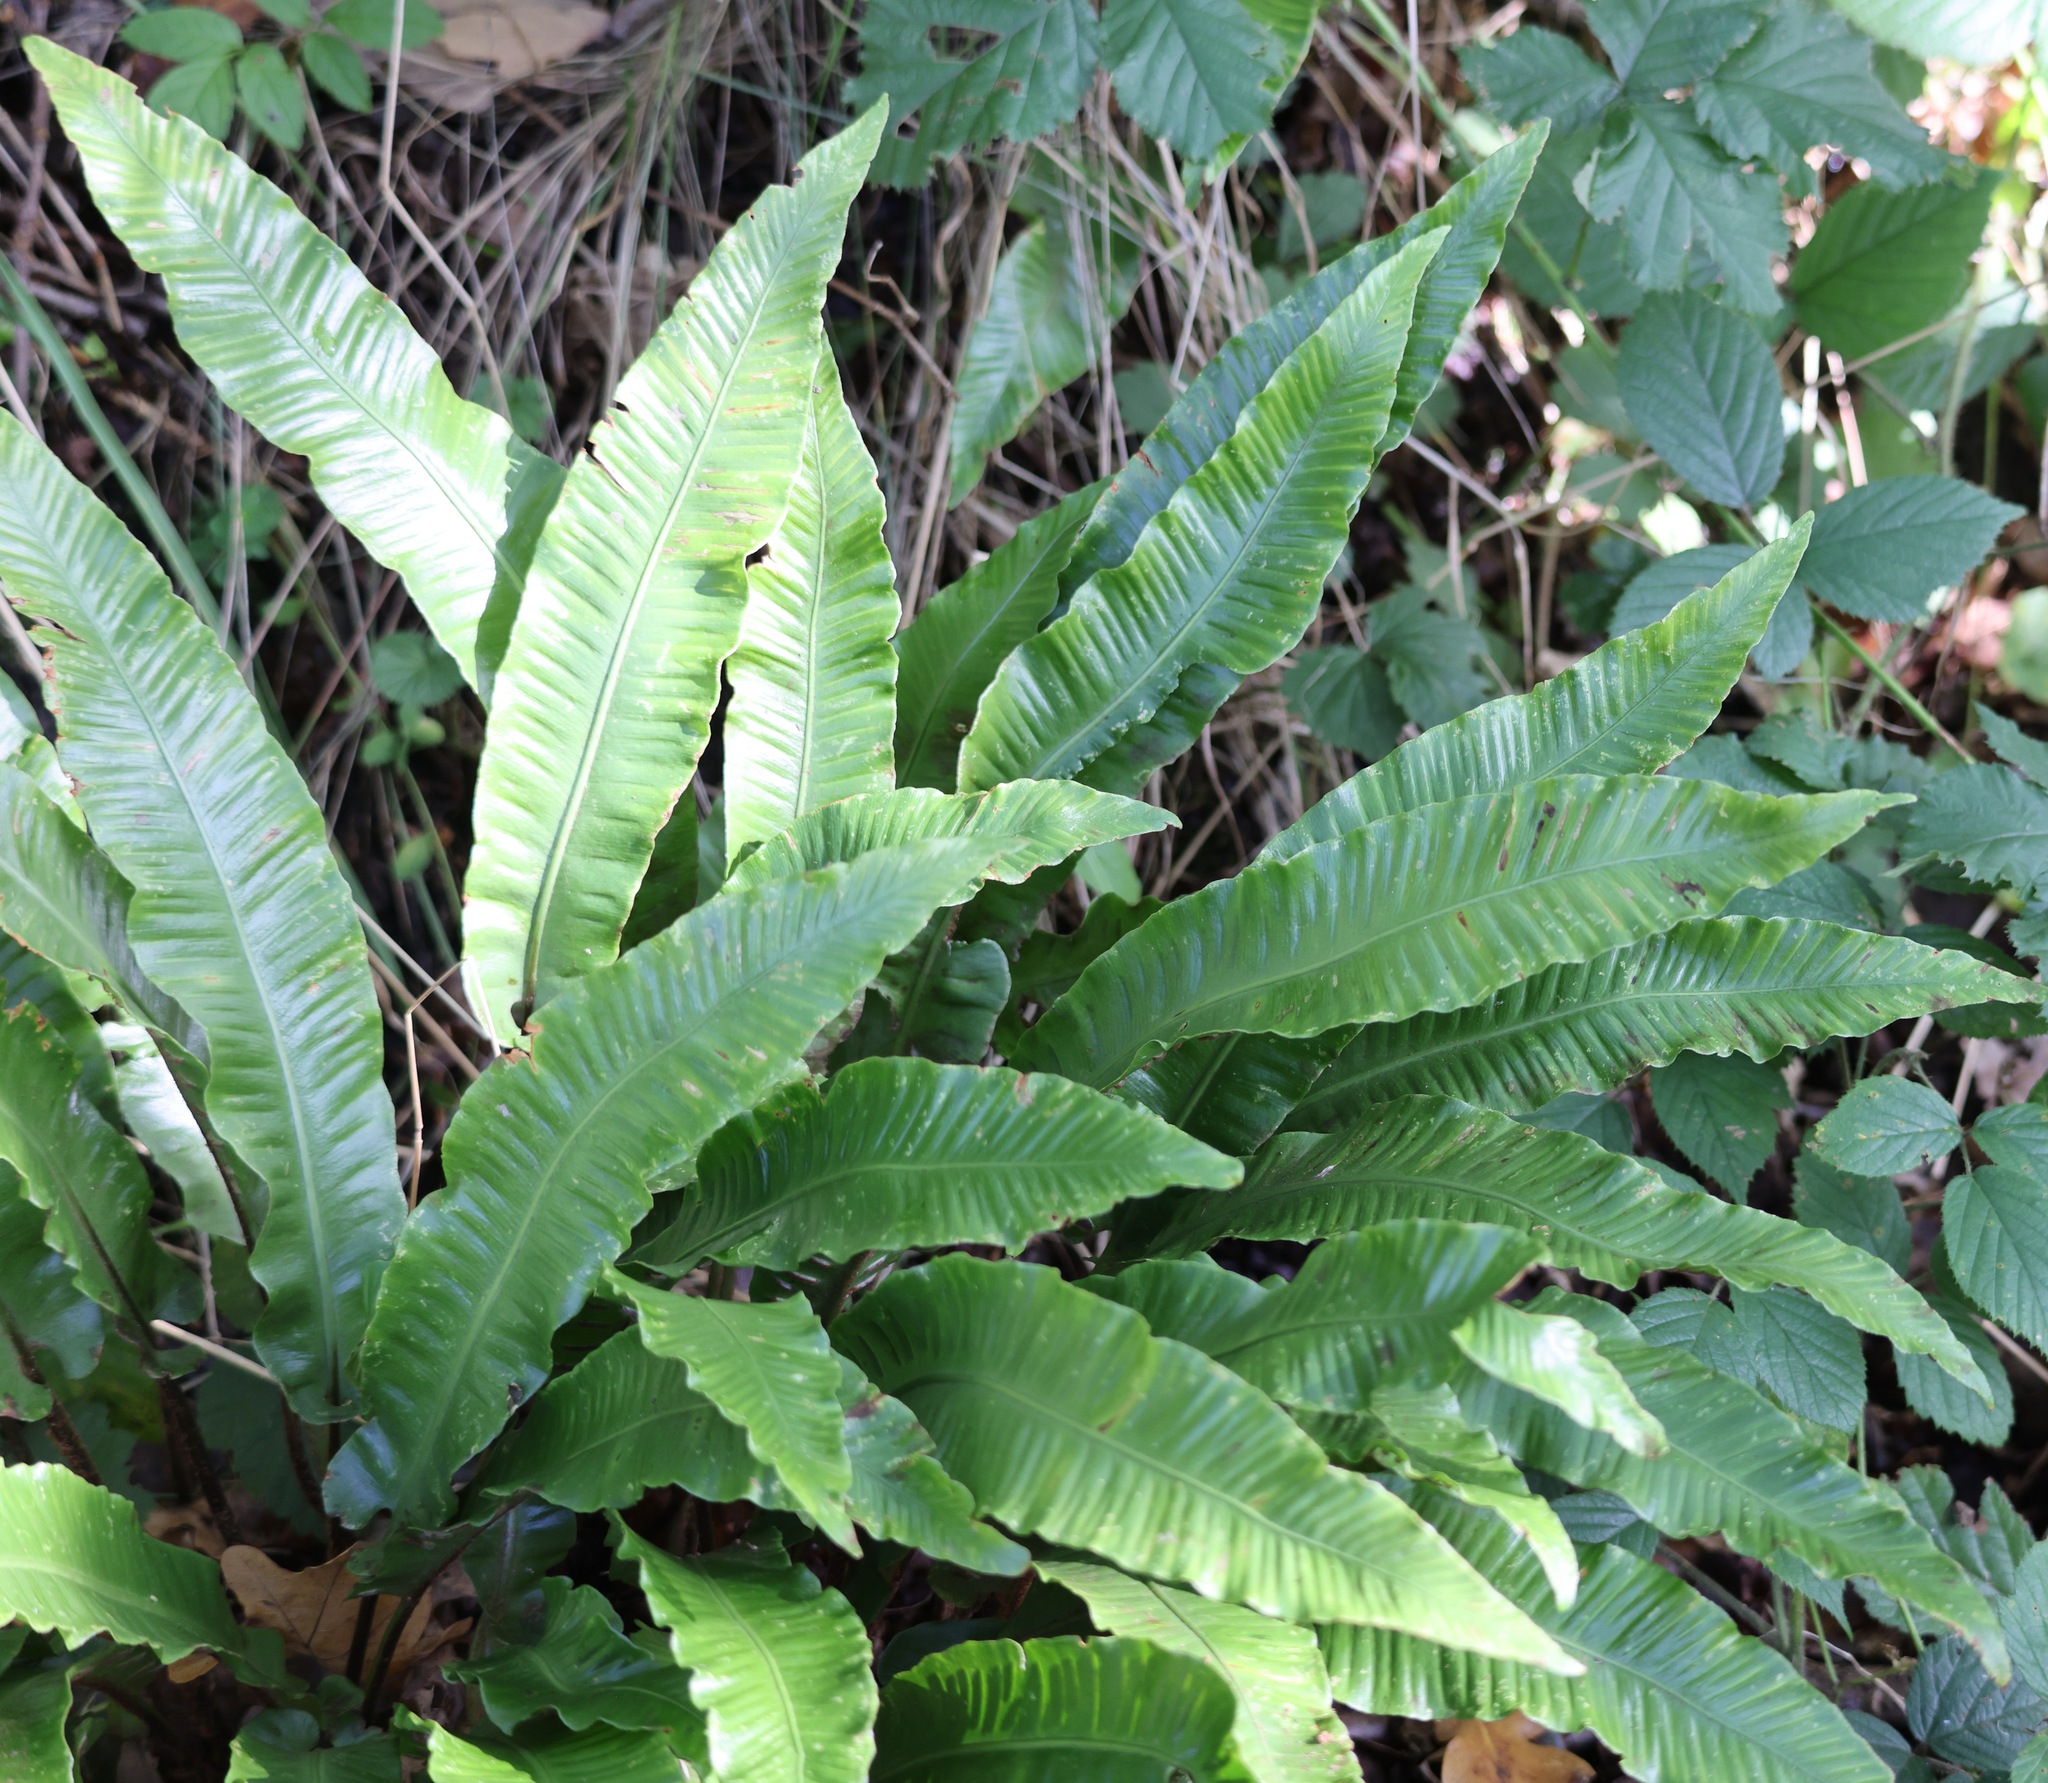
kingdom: Plantae
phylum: Tracheophyta
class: Polypodiopsida
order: Polypodiales
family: Aspleniaceae
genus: Asplenium
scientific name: Asplenium scolopendrium
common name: Hart's-tongue fern
